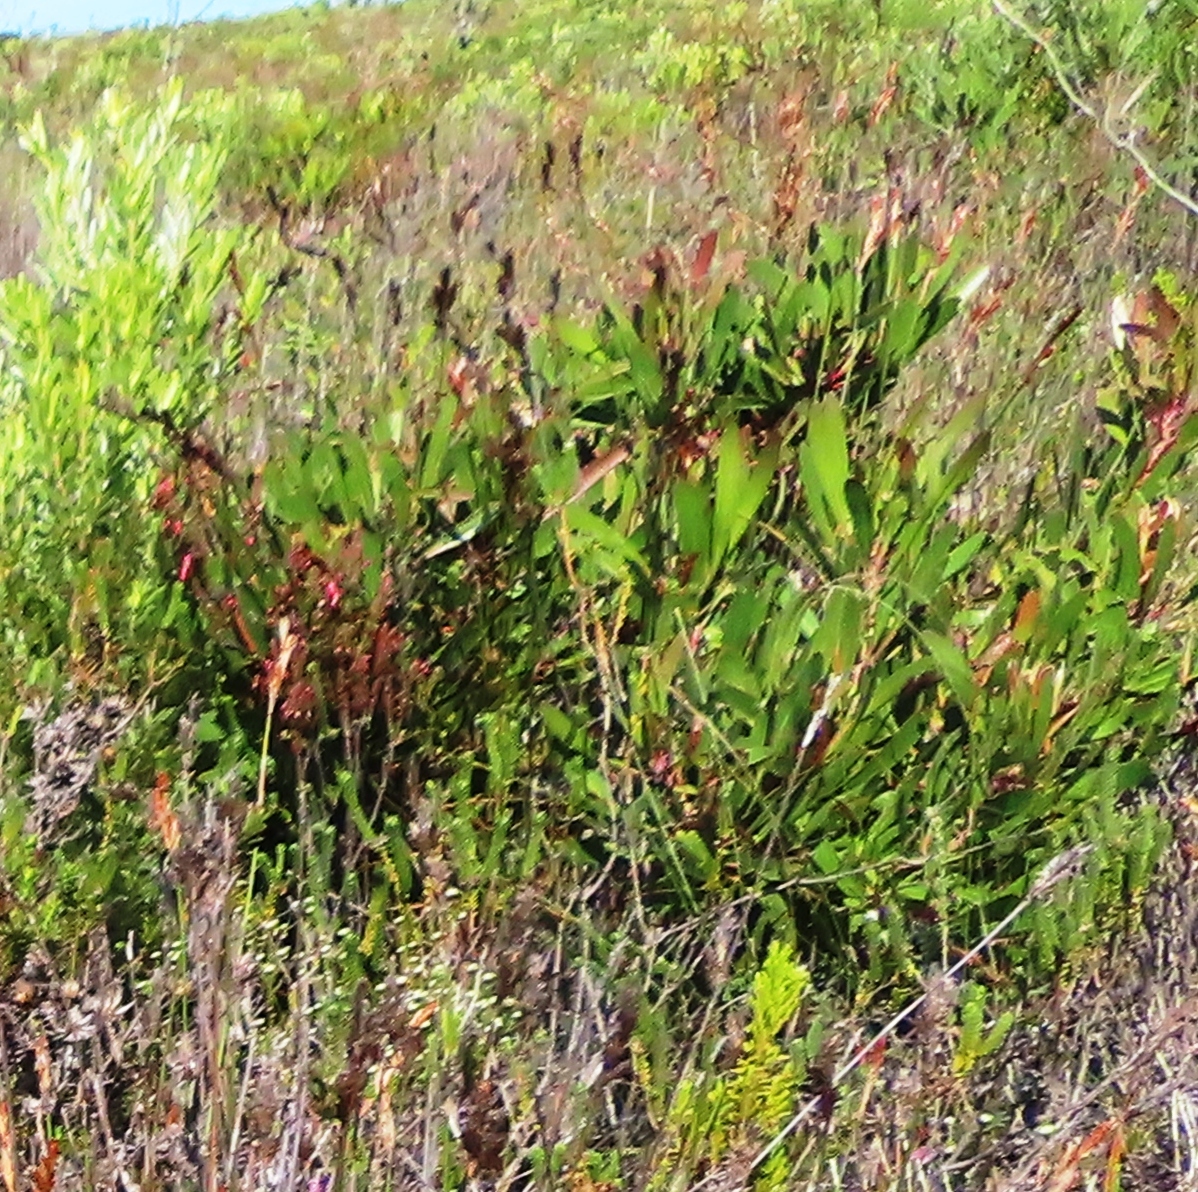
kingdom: Plantae
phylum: Tracheophyta
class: Magnoliopsida
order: Proteales
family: Proteaceae
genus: Protea
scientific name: Protea obtusifolia
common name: Bredasdorp sugarbush
